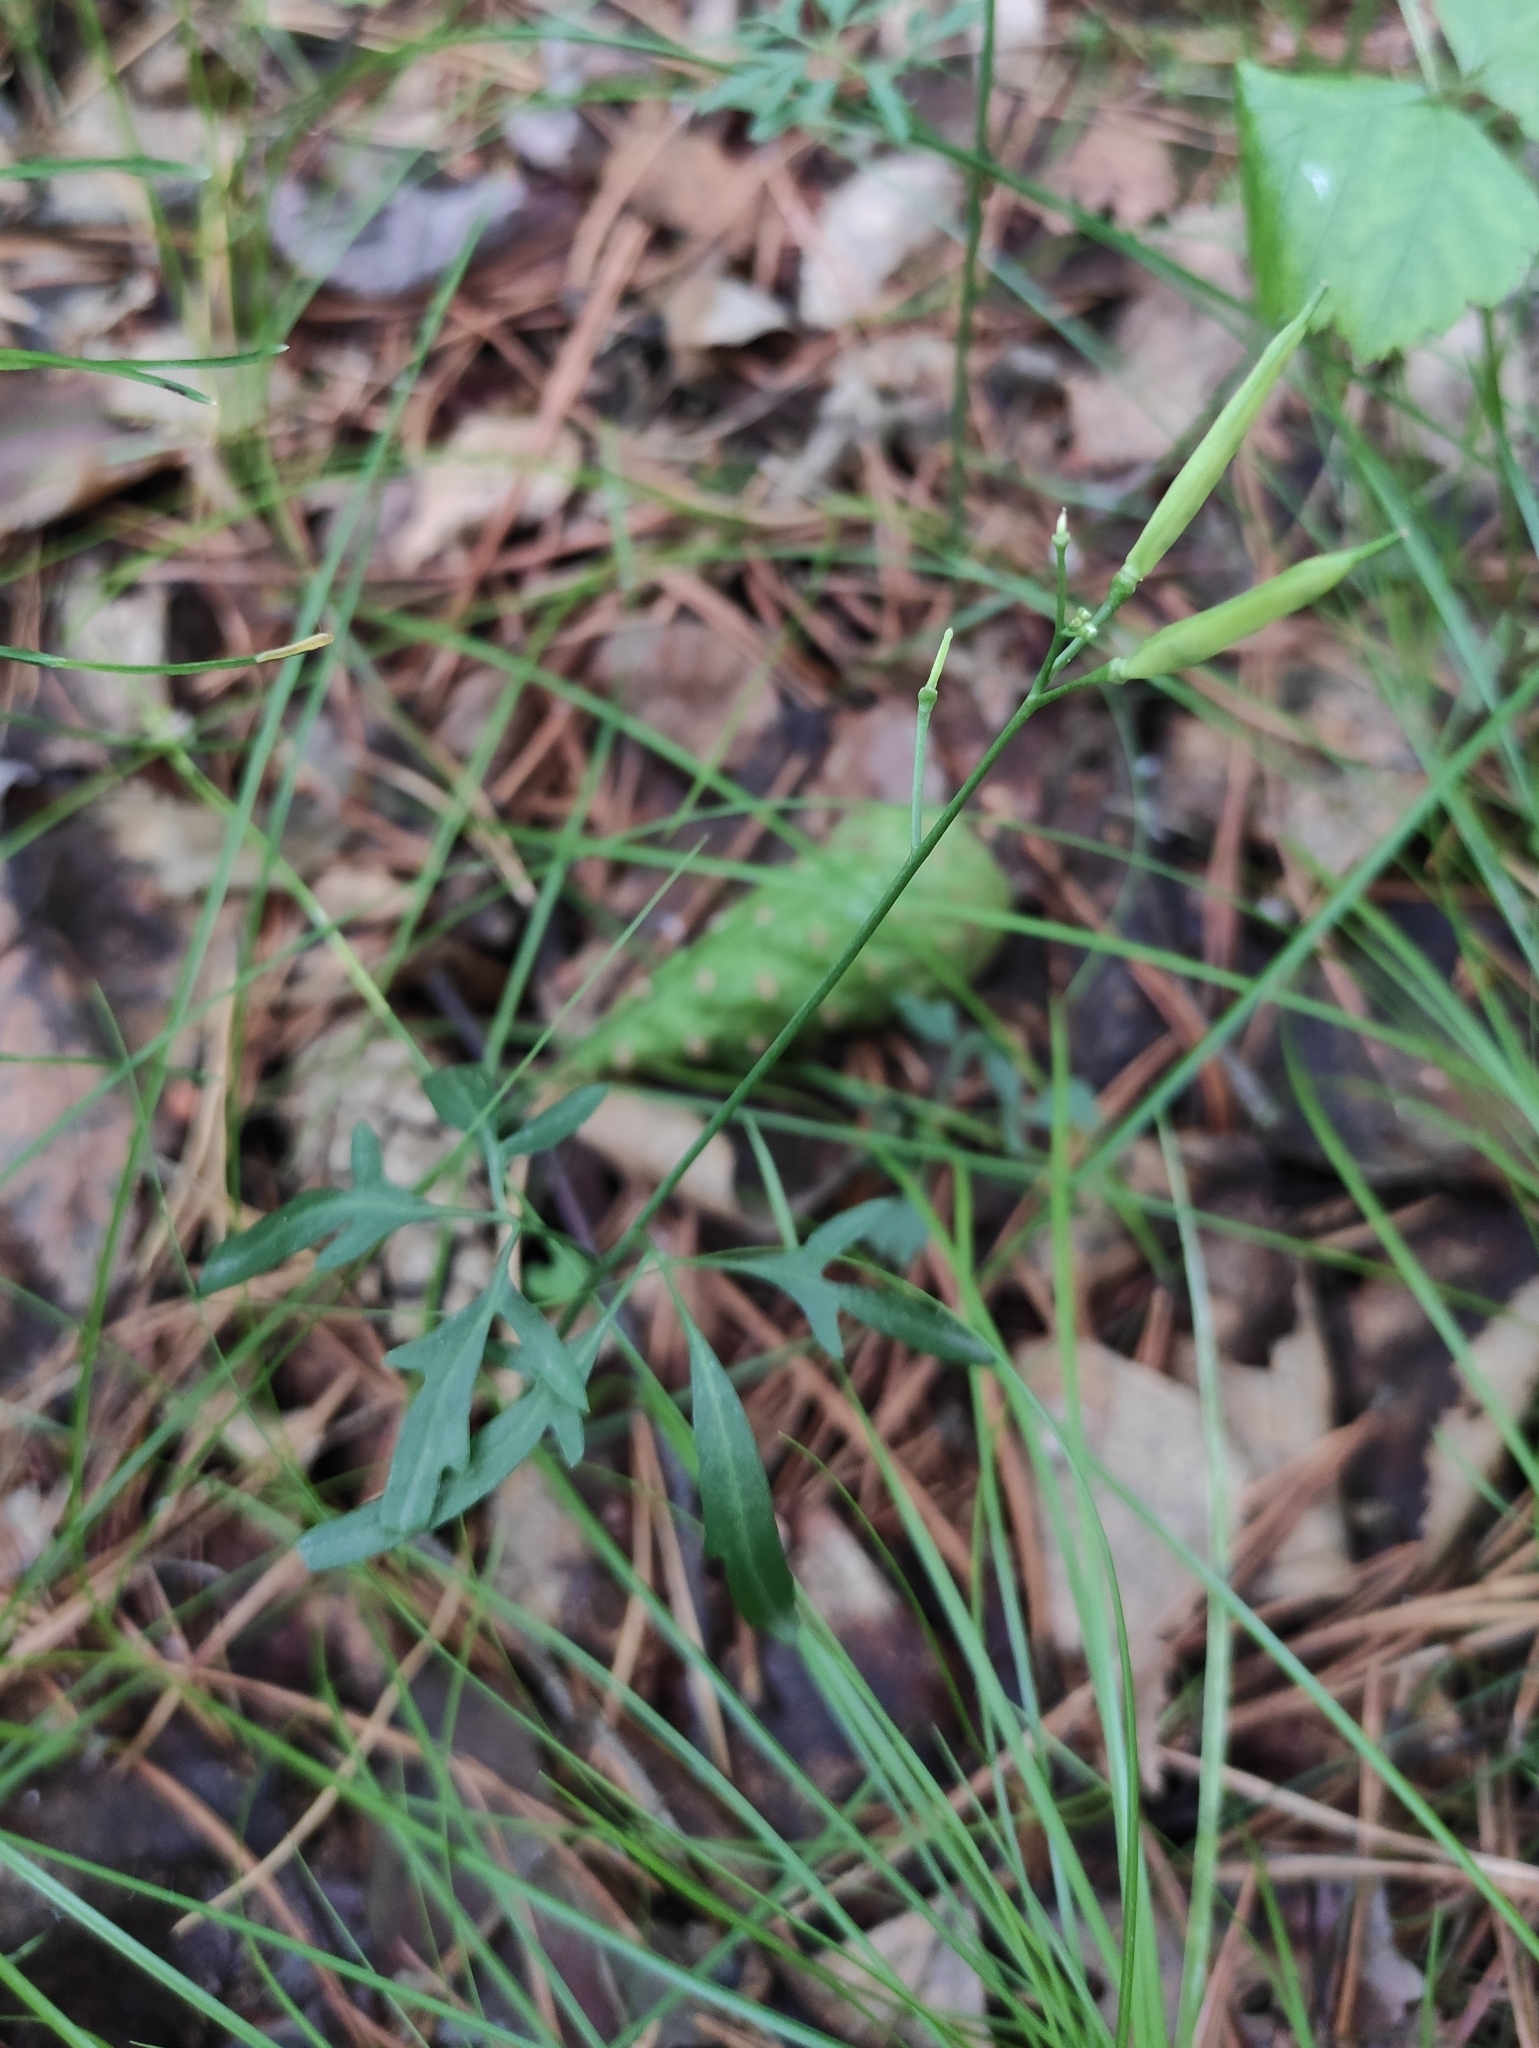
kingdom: Plantae
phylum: Tracheophyta
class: Magnoliopsida
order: Brassicales
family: Brassicaceae
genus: Cardamine
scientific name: Cardamine trifida
